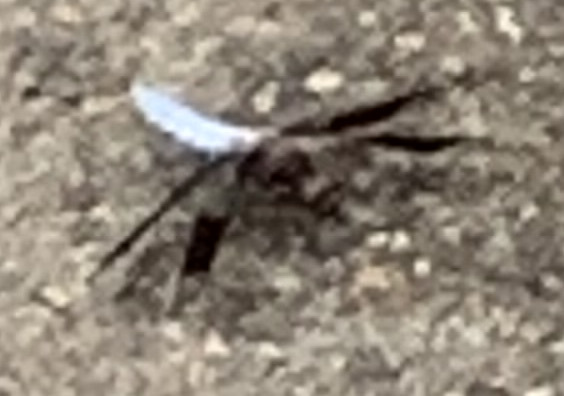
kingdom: Animalia
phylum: Arthropoda
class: Insecta
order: Odonata
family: Libellulidae
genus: Plathemis
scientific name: Plathemis lydia
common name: Common whitetail
